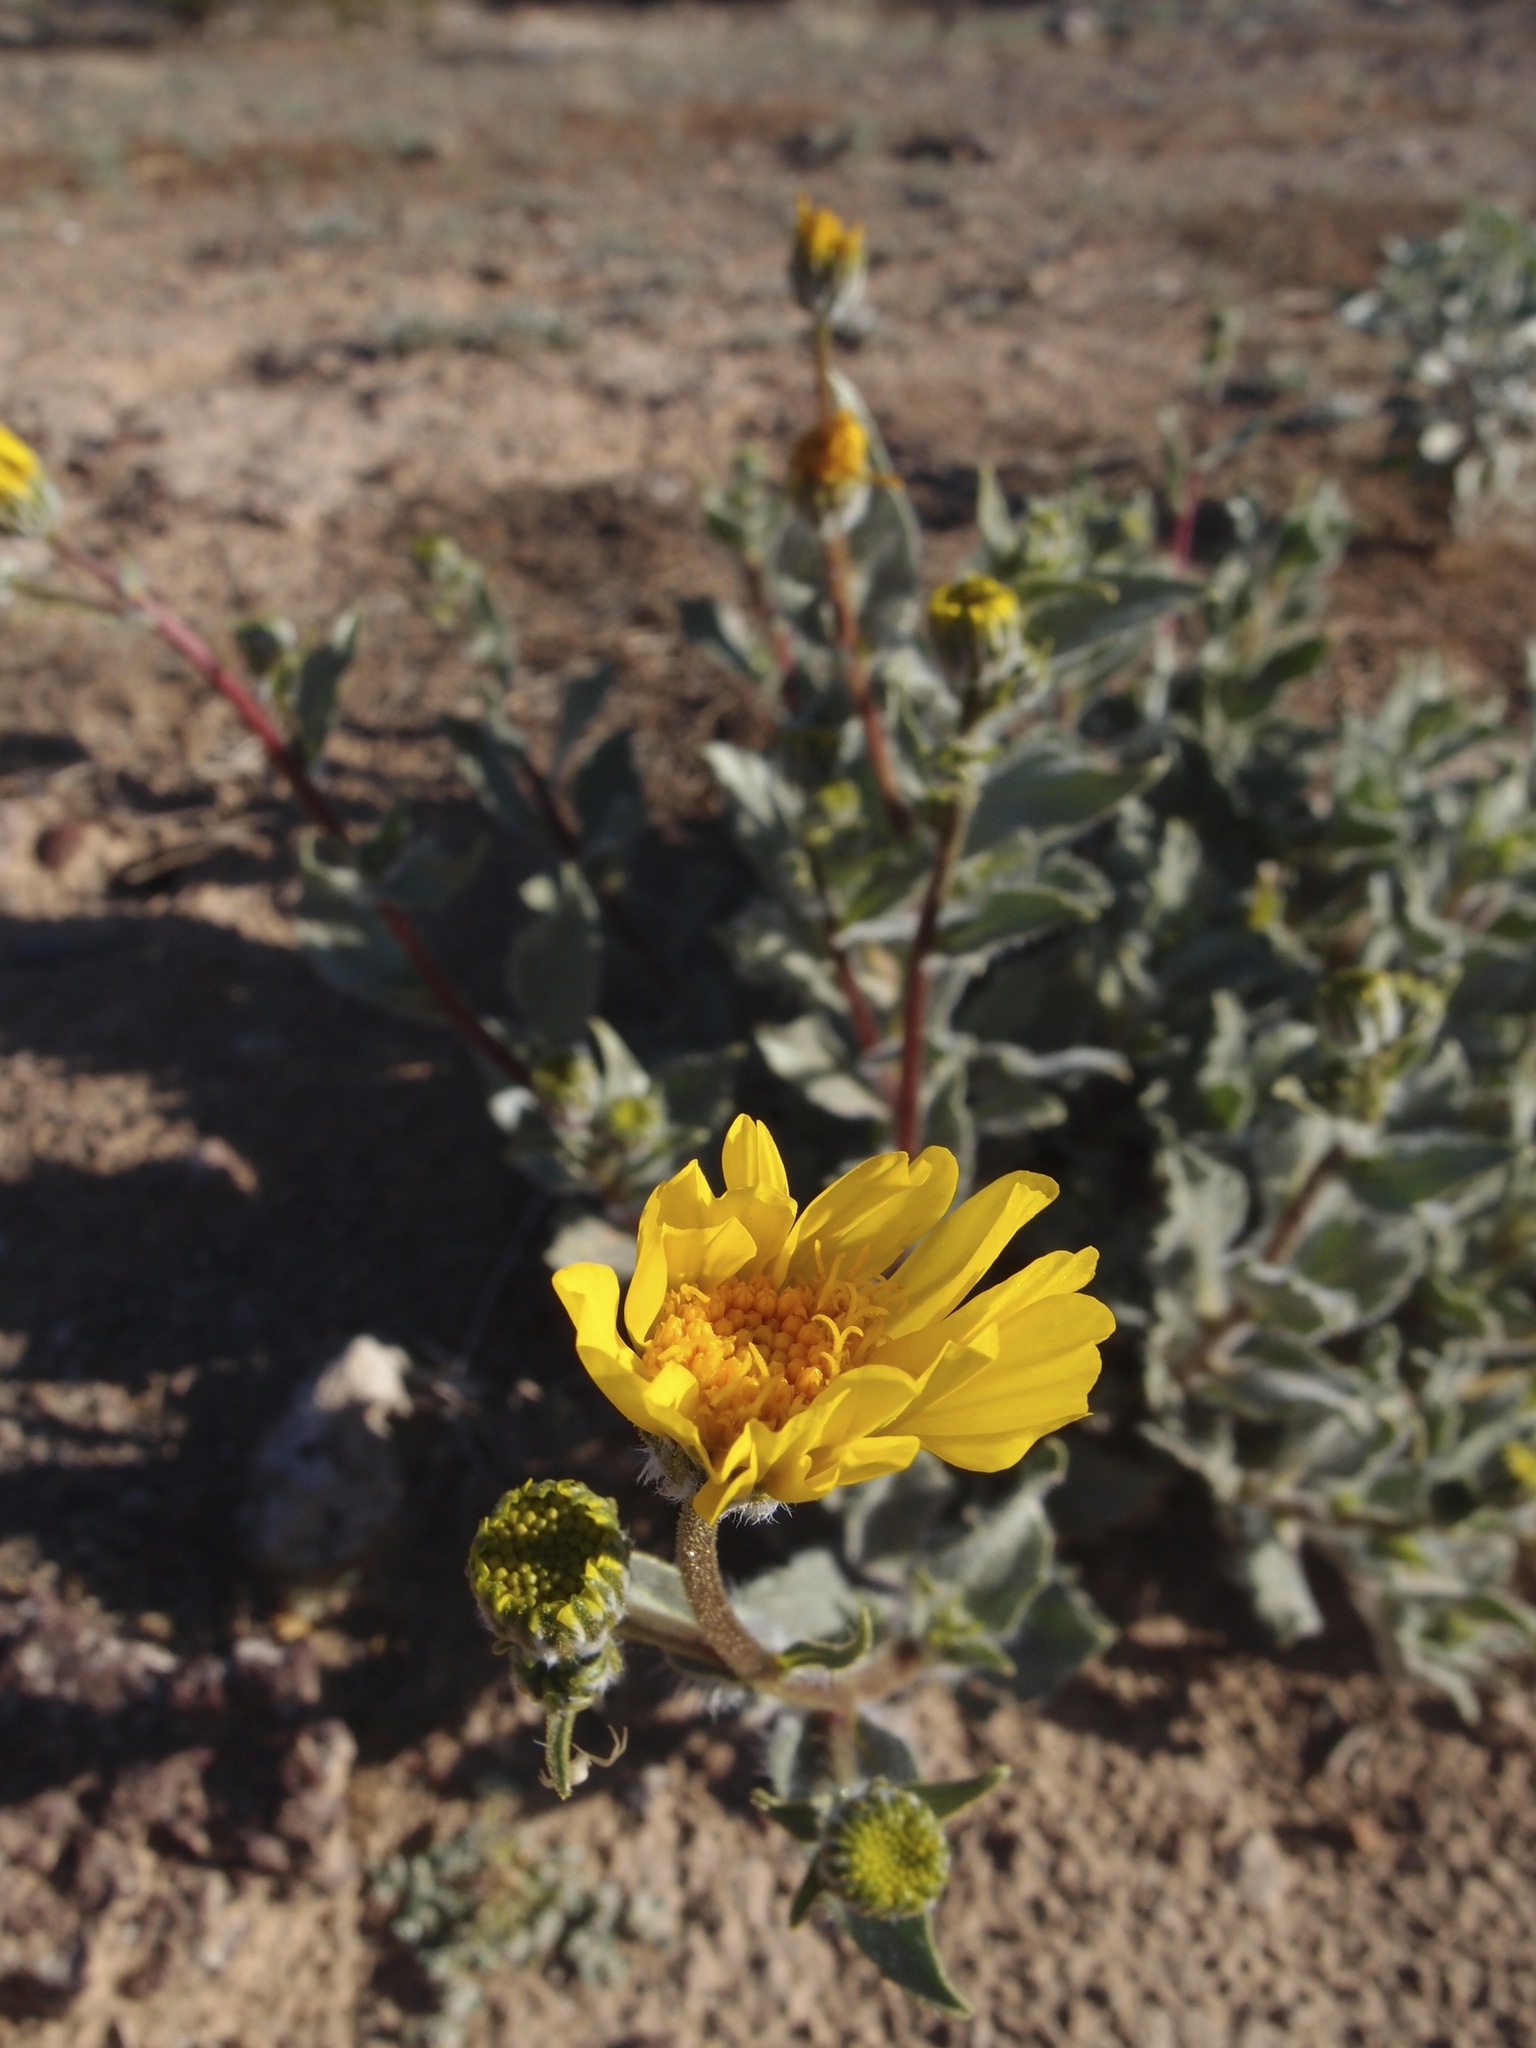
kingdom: Plantae
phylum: Tracheophyta
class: Magnoliopsida
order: Asterales
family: Asteraceae
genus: Geraea
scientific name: Geraea canescens
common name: Desert-gold
